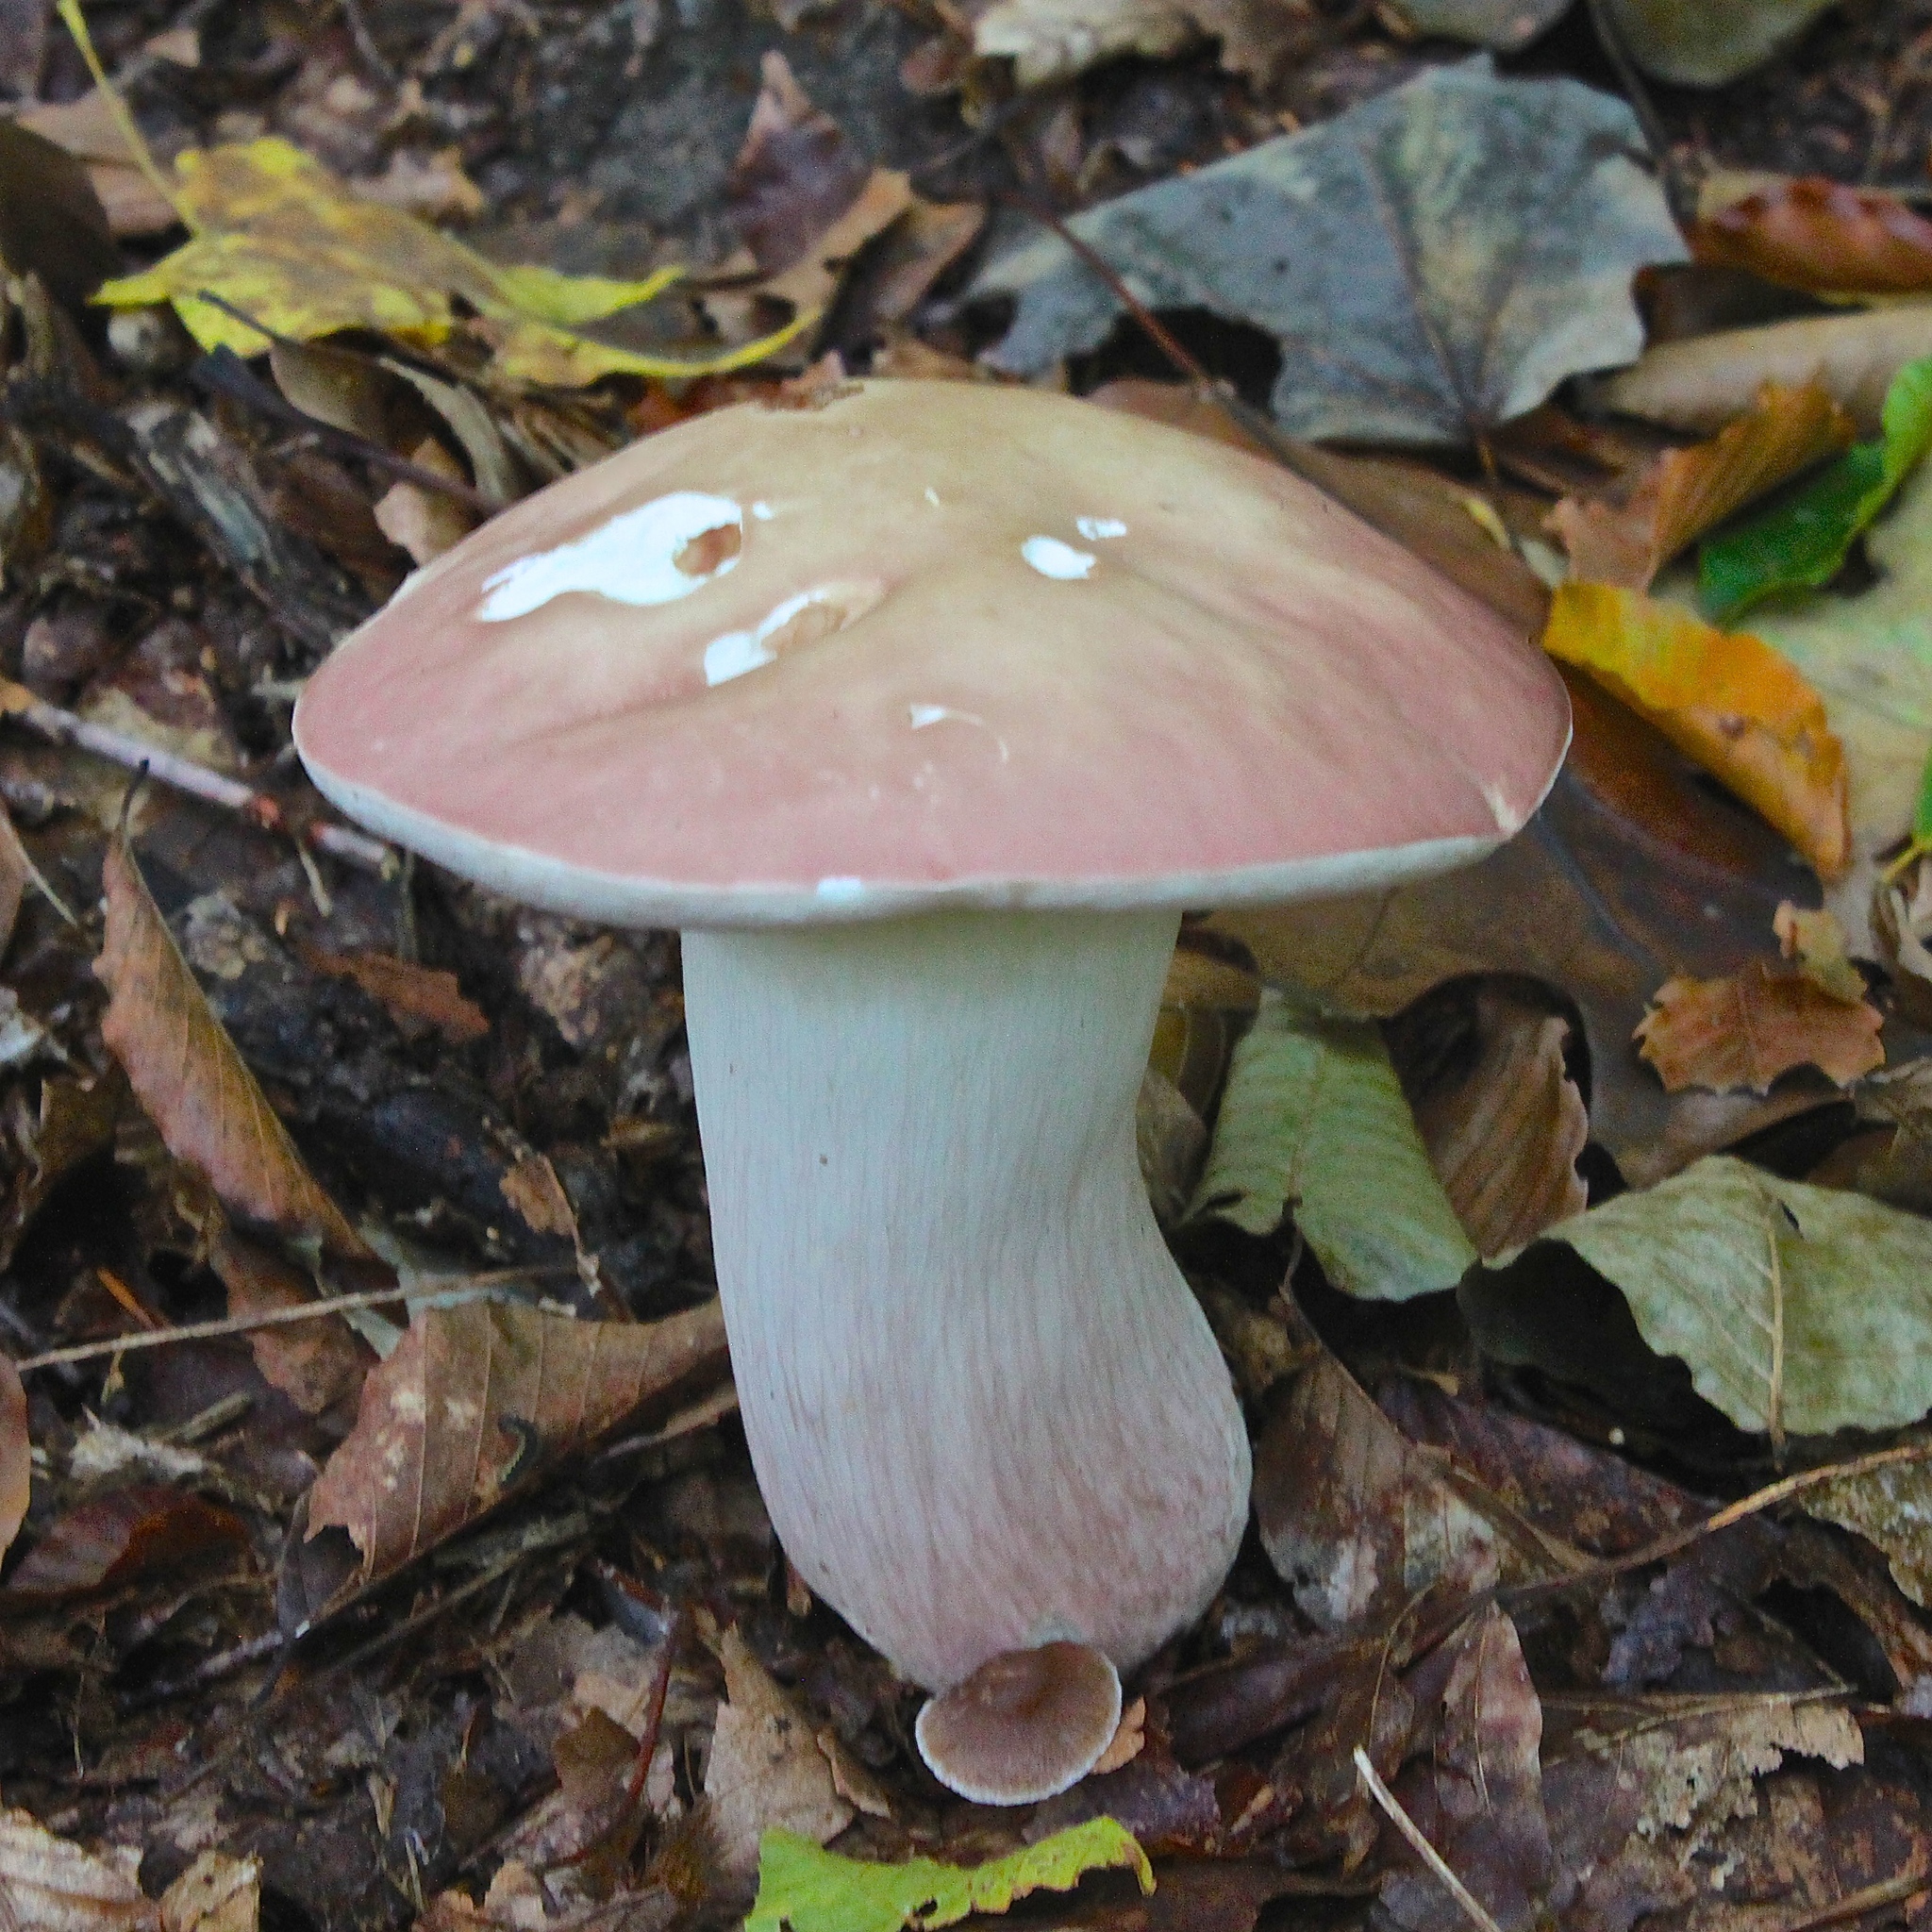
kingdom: Fungi
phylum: Basidiomycota
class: Agaricomycetes
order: Boletales
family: Boletaceae
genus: Xanthoconium
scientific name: Xanthoconium separans
